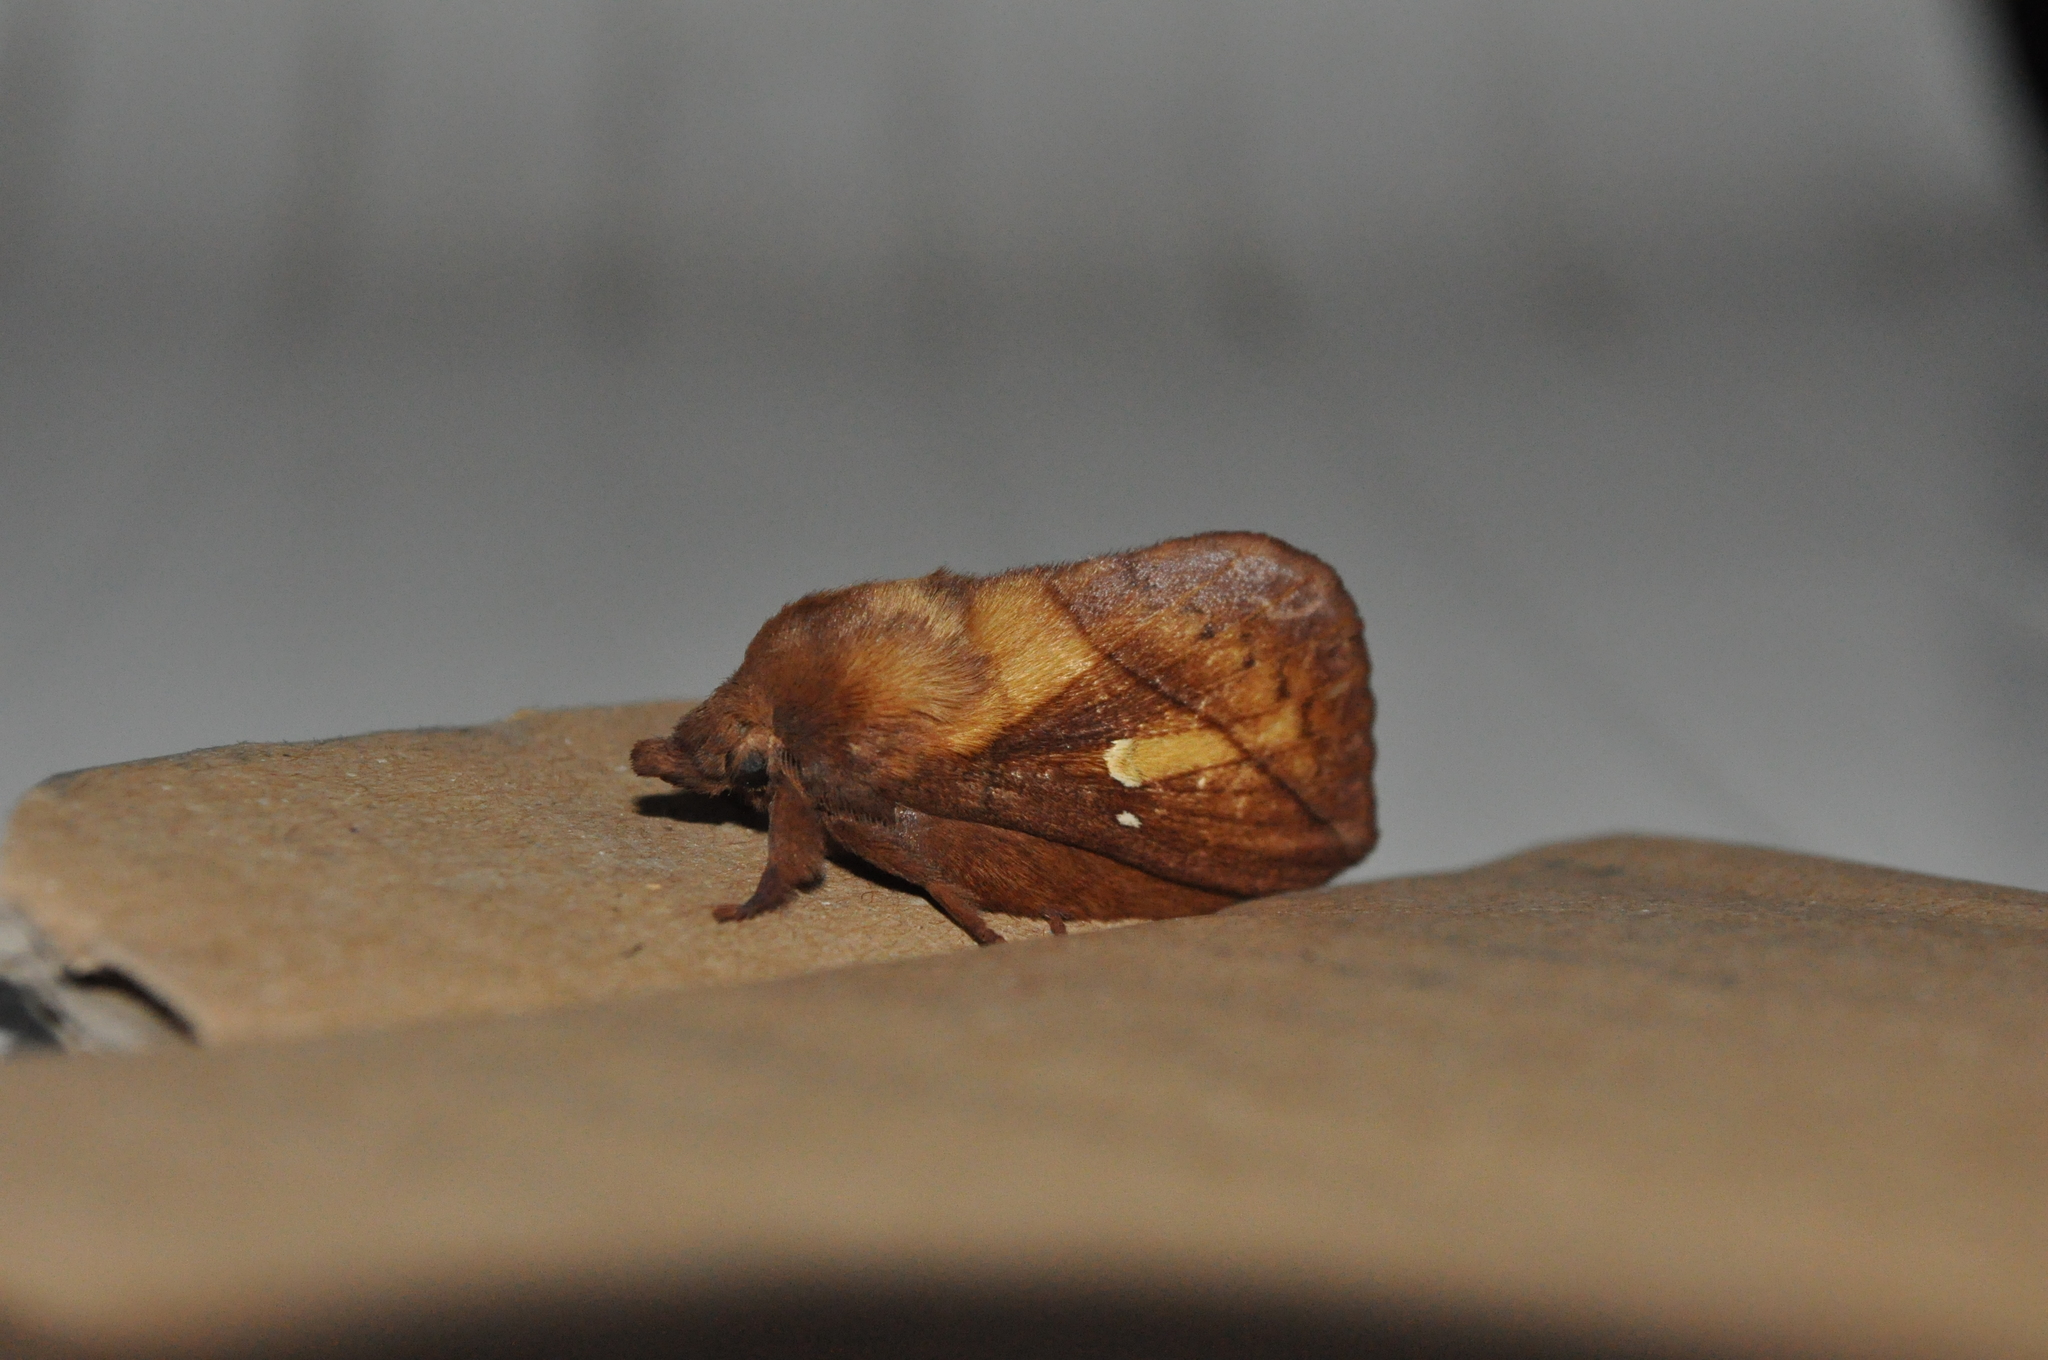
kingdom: Animalia
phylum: Arthropoda
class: Insecta
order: Lepidoptera
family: Lasiocampidae
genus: Euthrix
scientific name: Euthrix potatoria
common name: Drinker
